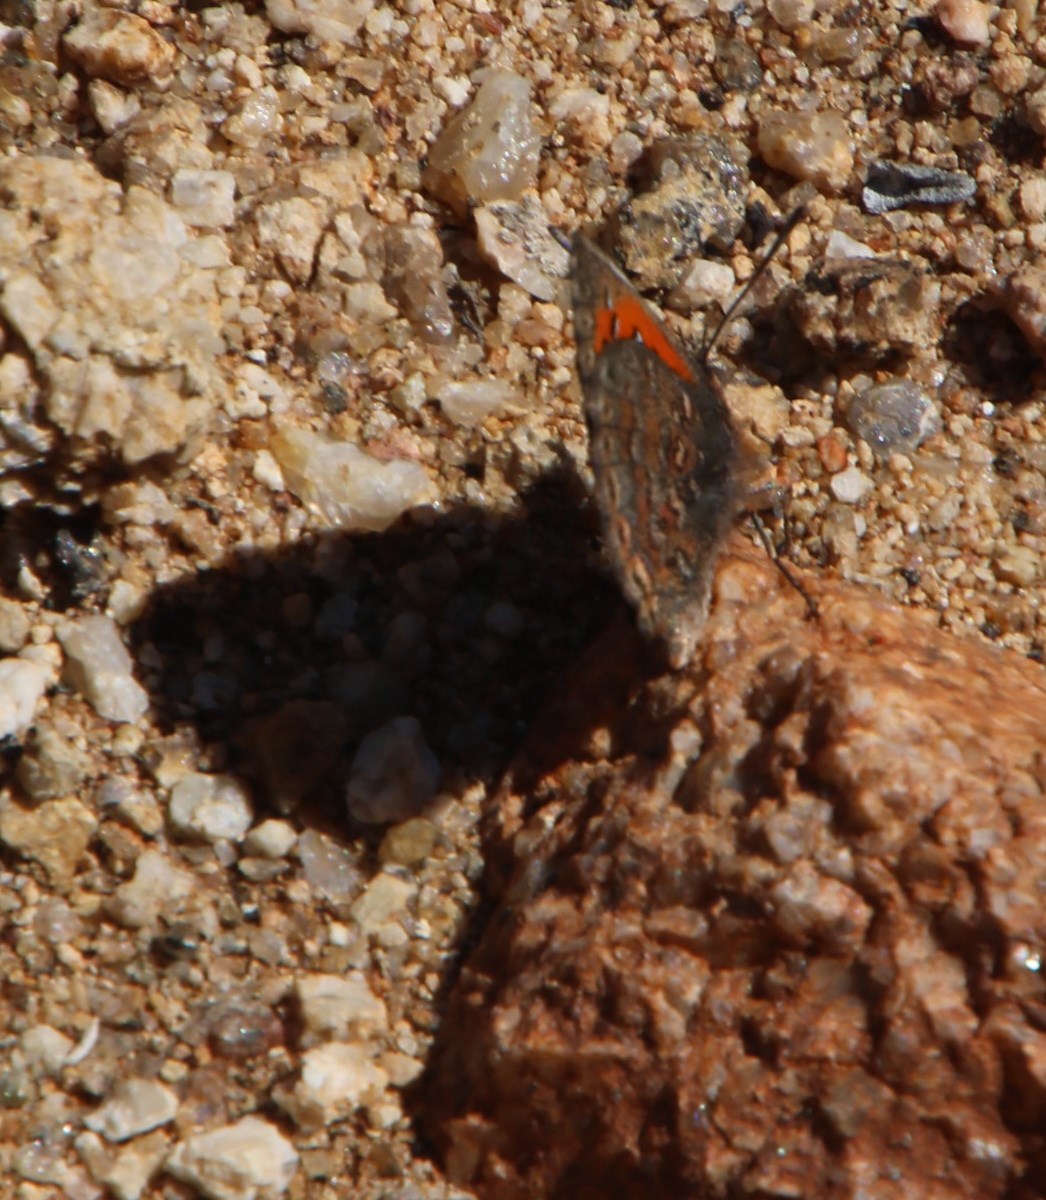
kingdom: Animalia
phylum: Arthropoda
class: Insecta
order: Lepidoptera
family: Lycaenidae
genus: Zeritis
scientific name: Zeritis barklyi
